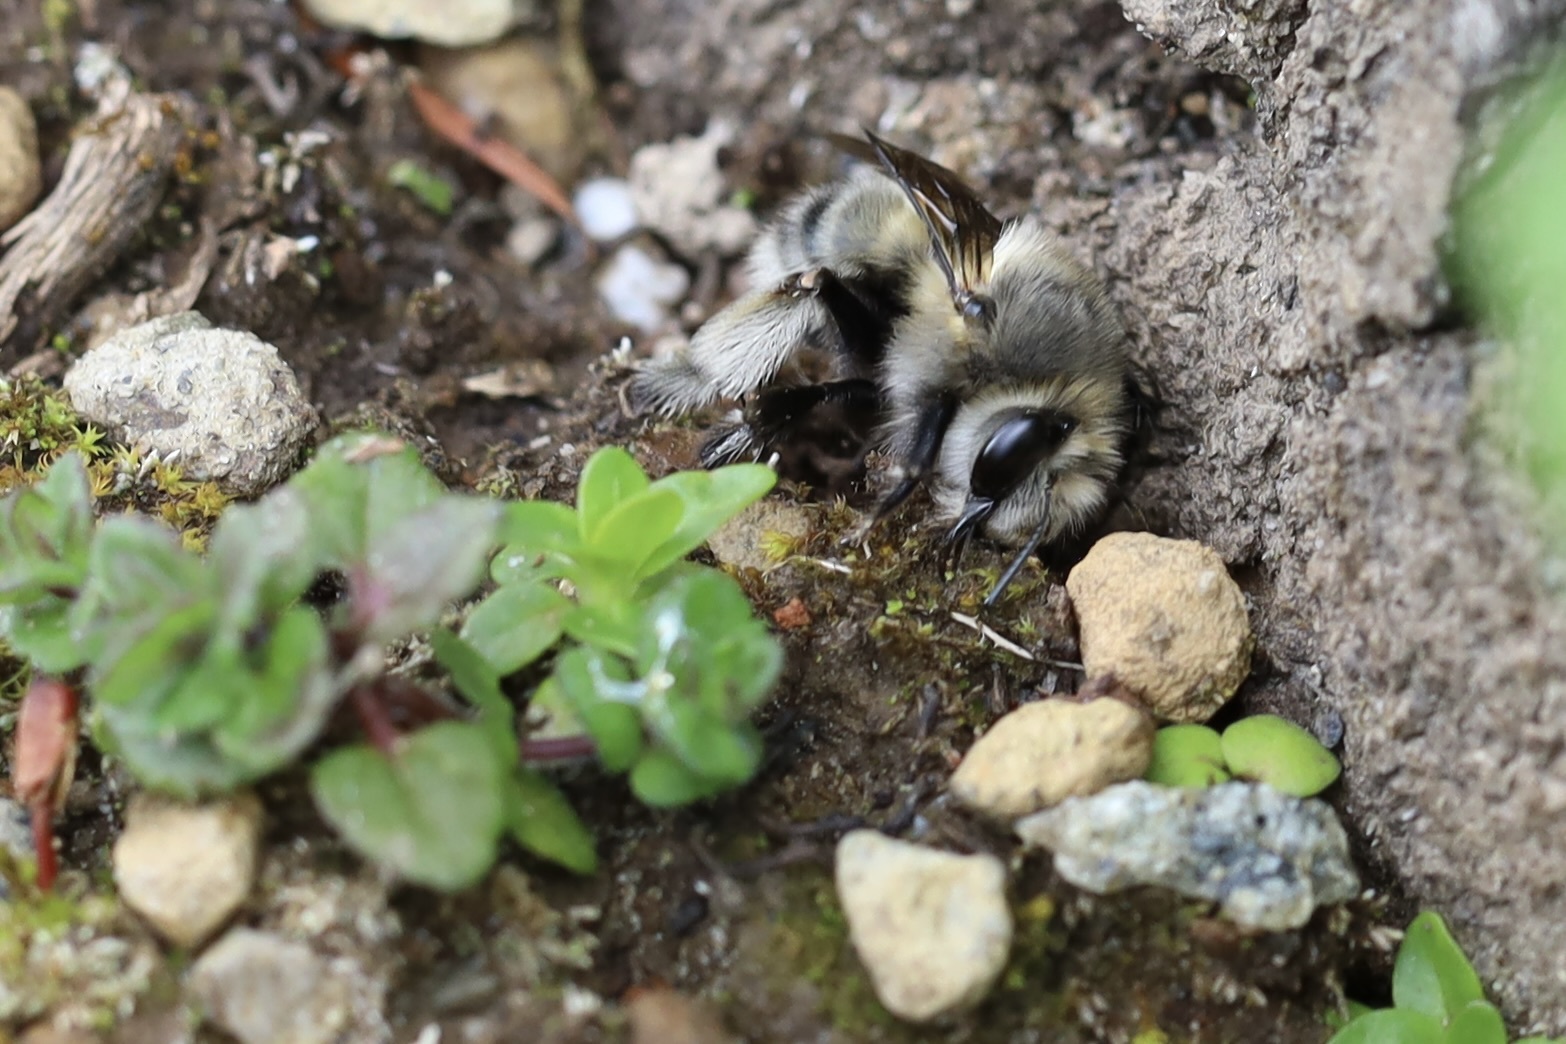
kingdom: Animalia
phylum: Arthropoda
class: Insecta
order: Hymenoptera
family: Apidae
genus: Anthophora
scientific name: Anthophora pacifica
